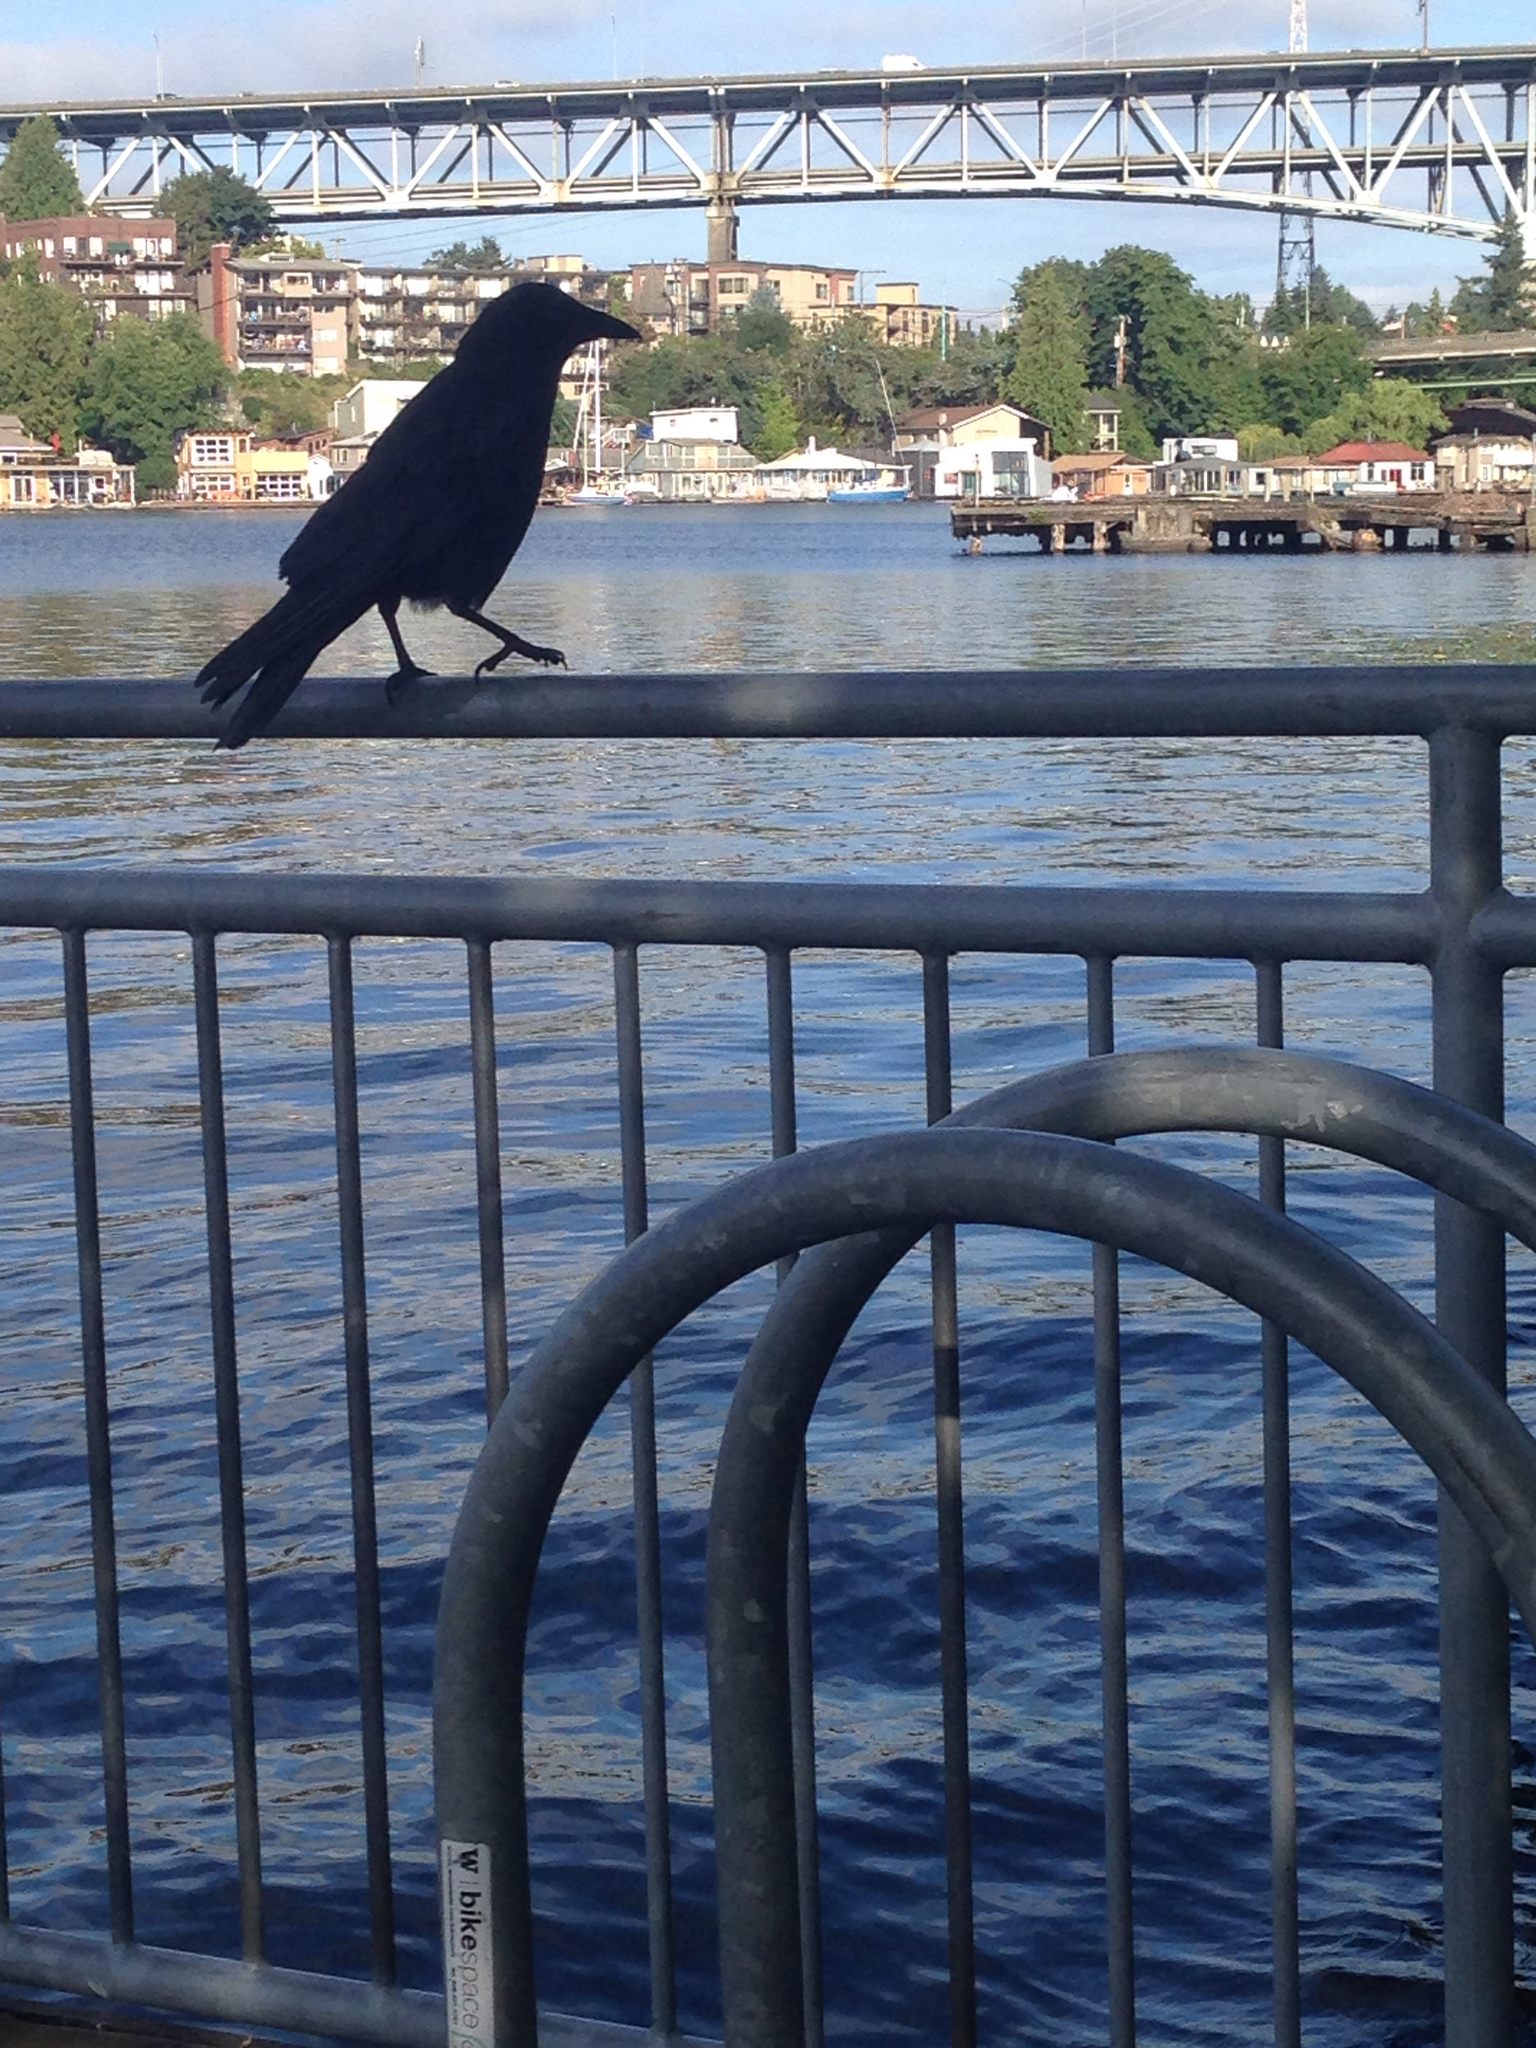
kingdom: Animalia
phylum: Chordata
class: Aves
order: Passeriformes
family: Corvidae
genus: Corvus
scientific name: Corvus brachyrhynchos
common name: American crow
